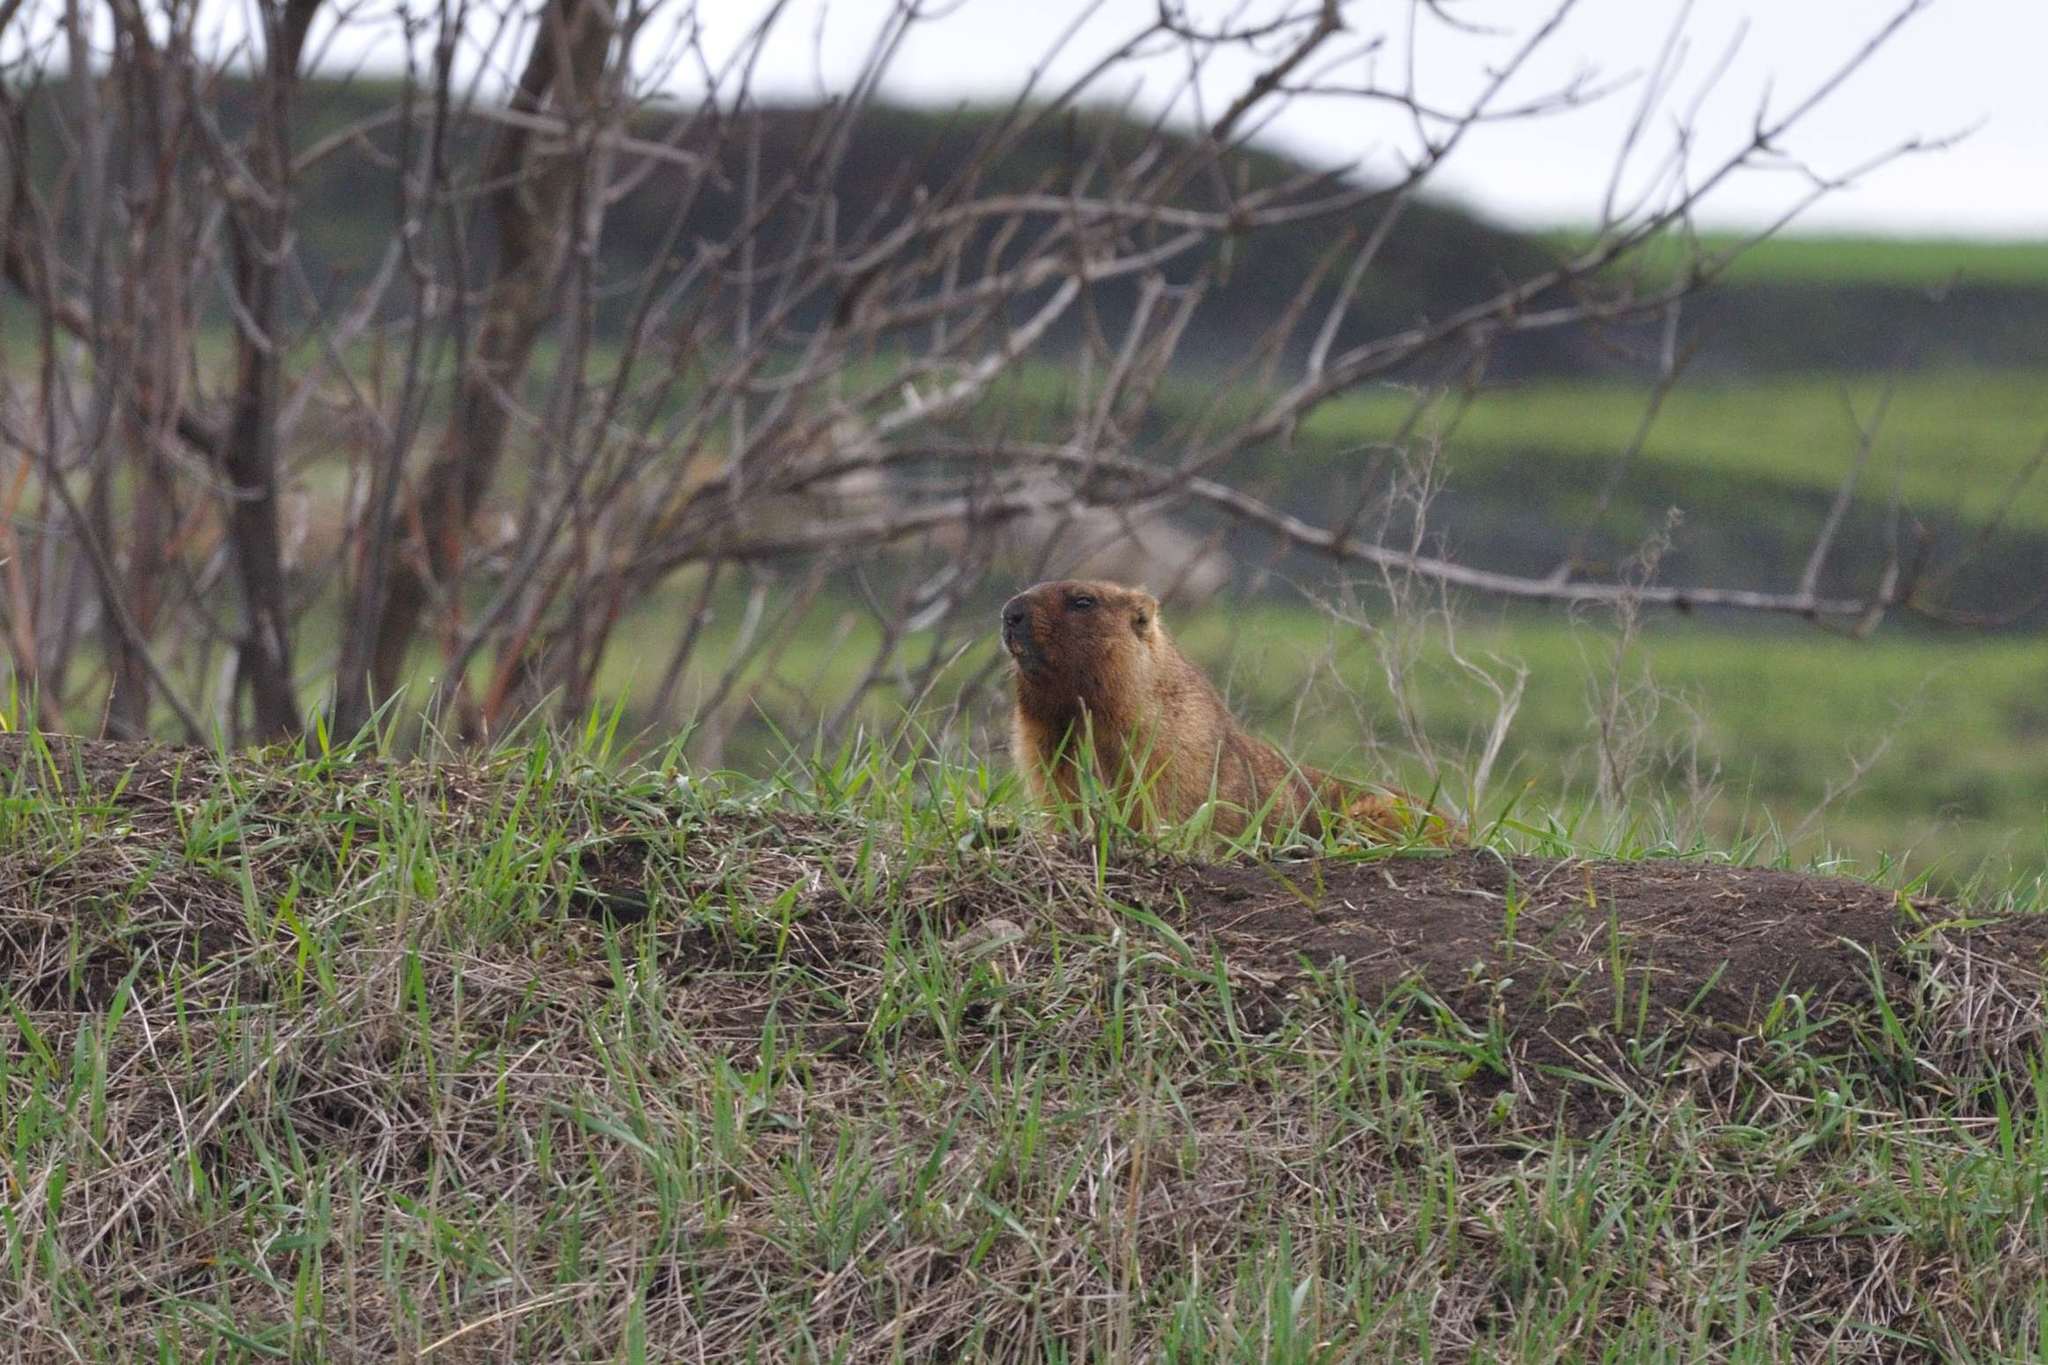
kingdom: Animalia
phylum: Chordata
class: Mammalia
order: Rodentia
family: Sciuridae
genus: Marmota
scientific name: Marmota bobak
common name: Bobak marmot
